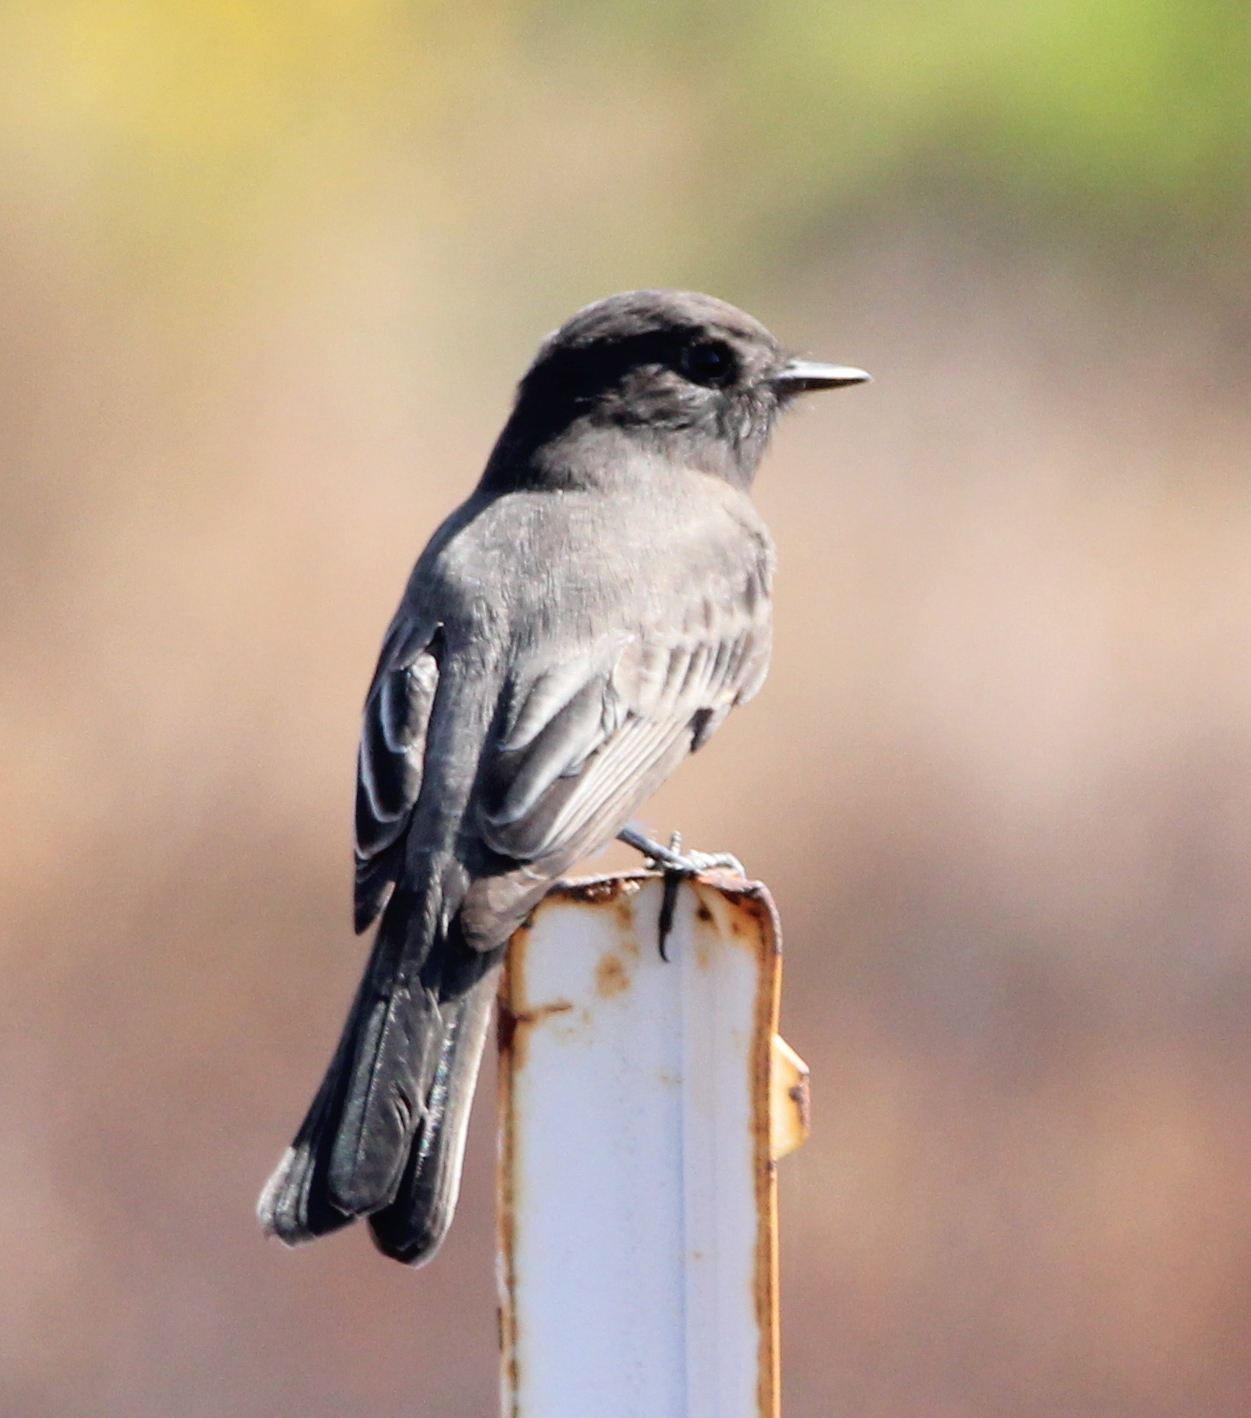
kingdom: Animalia
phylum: Chordata
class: Aves
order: Passeriformes
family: Tyrannidae
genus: Sayornis
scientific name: Sayornis nigricans
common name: Black phoebe
